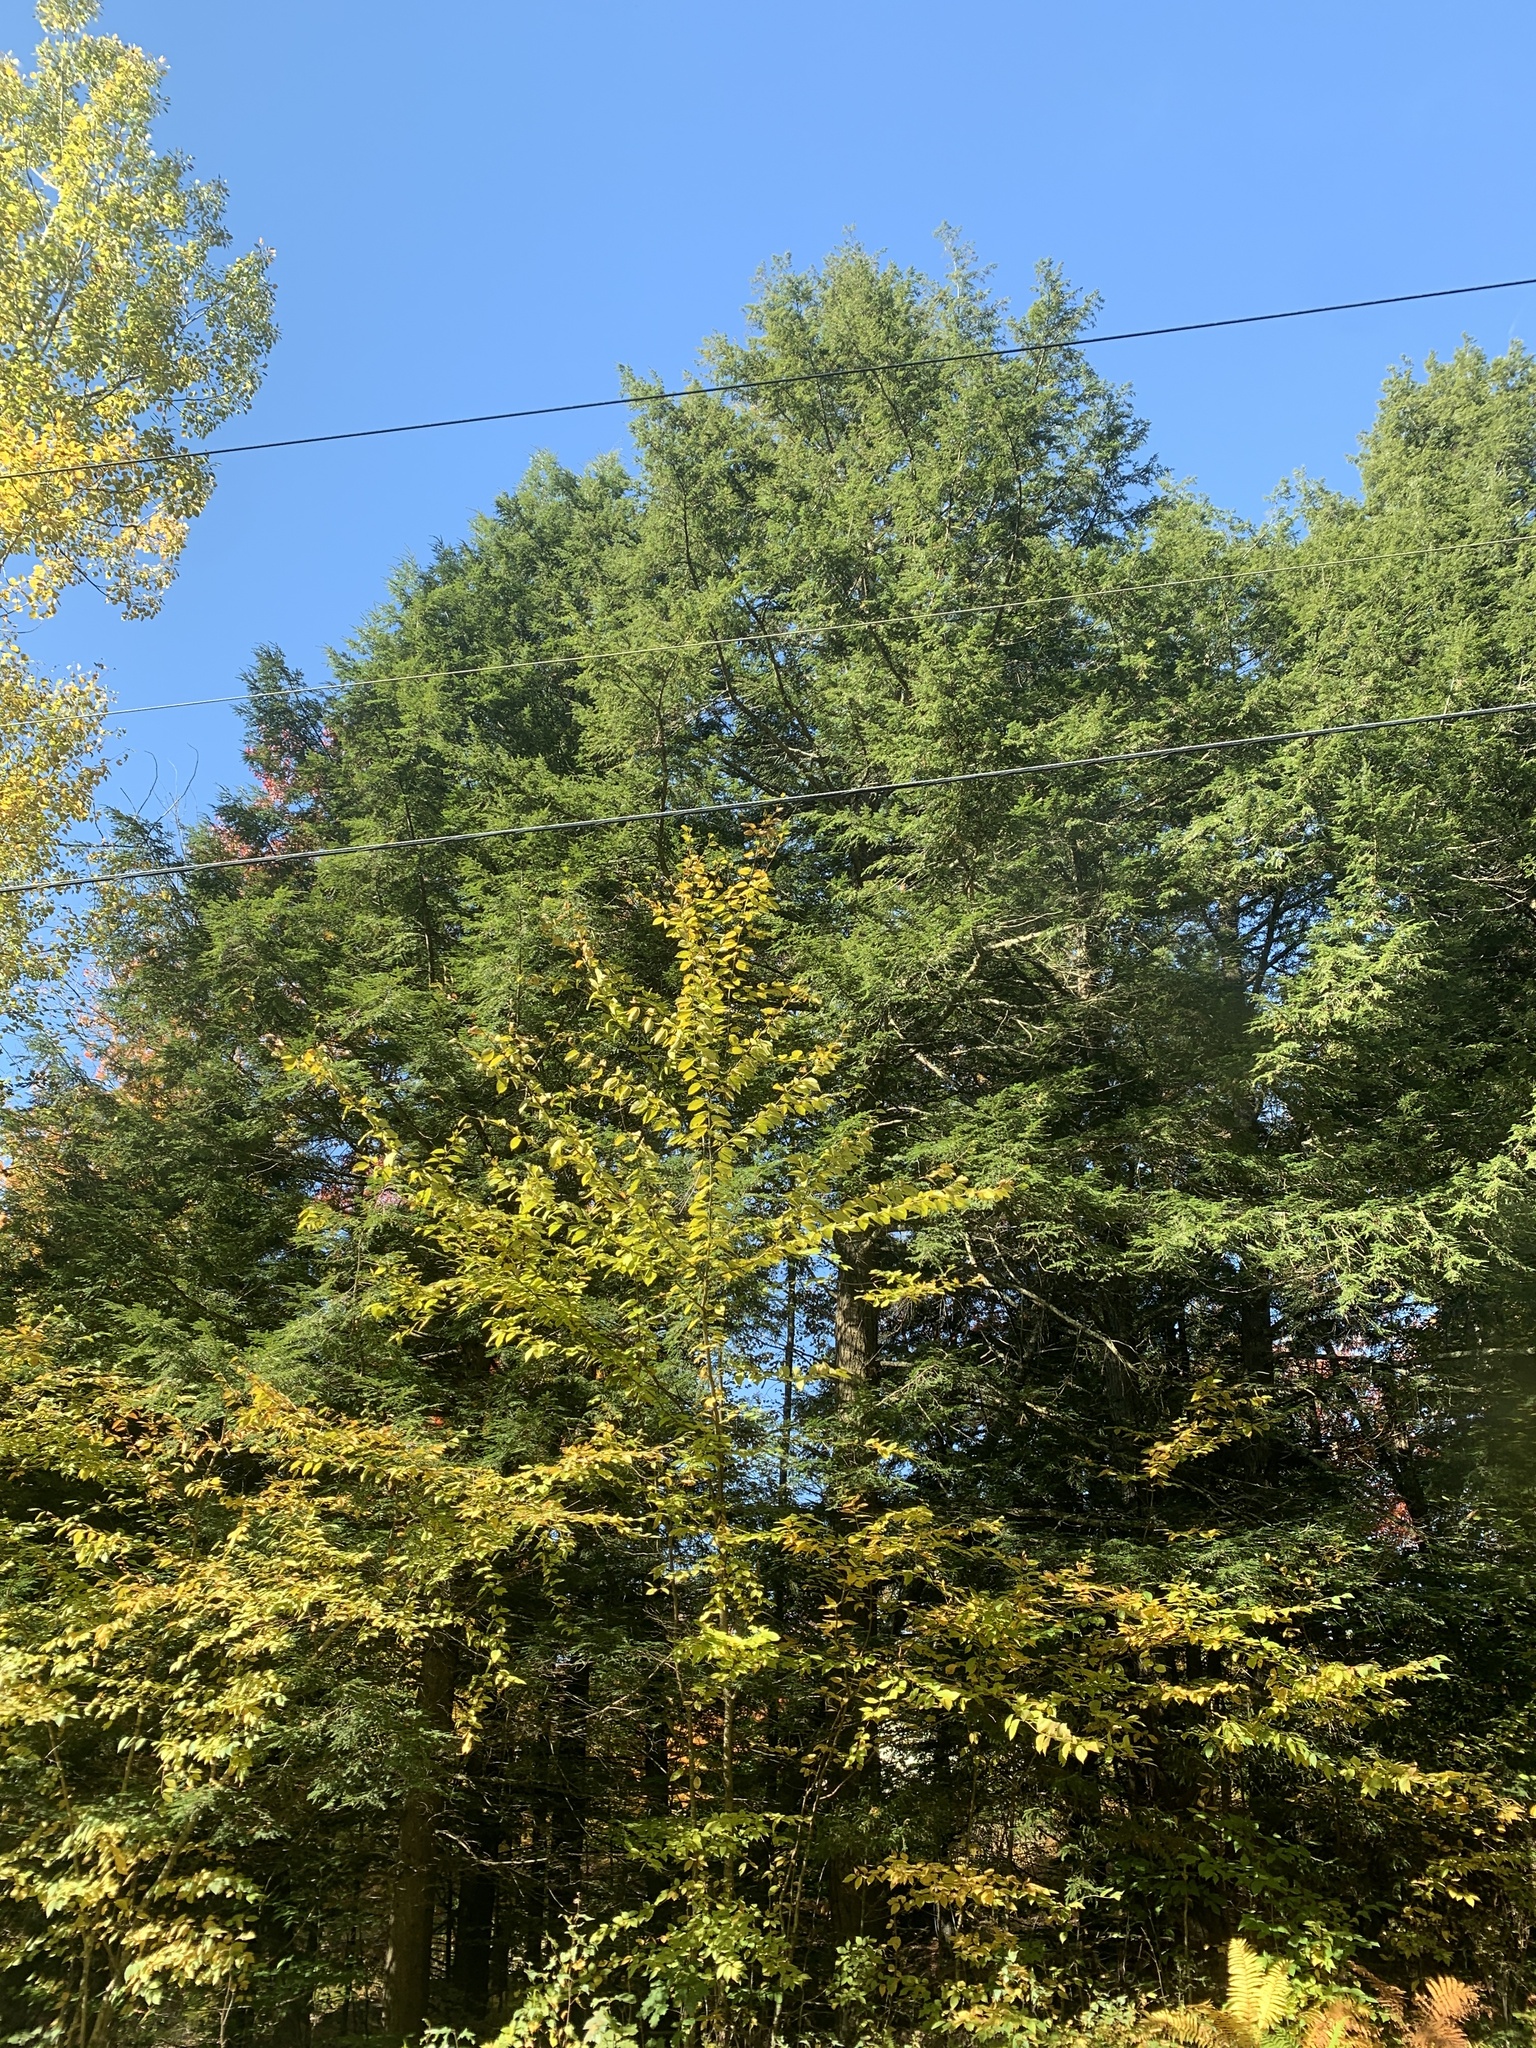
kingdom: Plantae
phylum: Tracheophyta
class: Pinopsida
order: Pinales
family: Pinaceae
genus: Tsuga
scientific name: Tsuga canadensis
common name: Eastern hemlock
